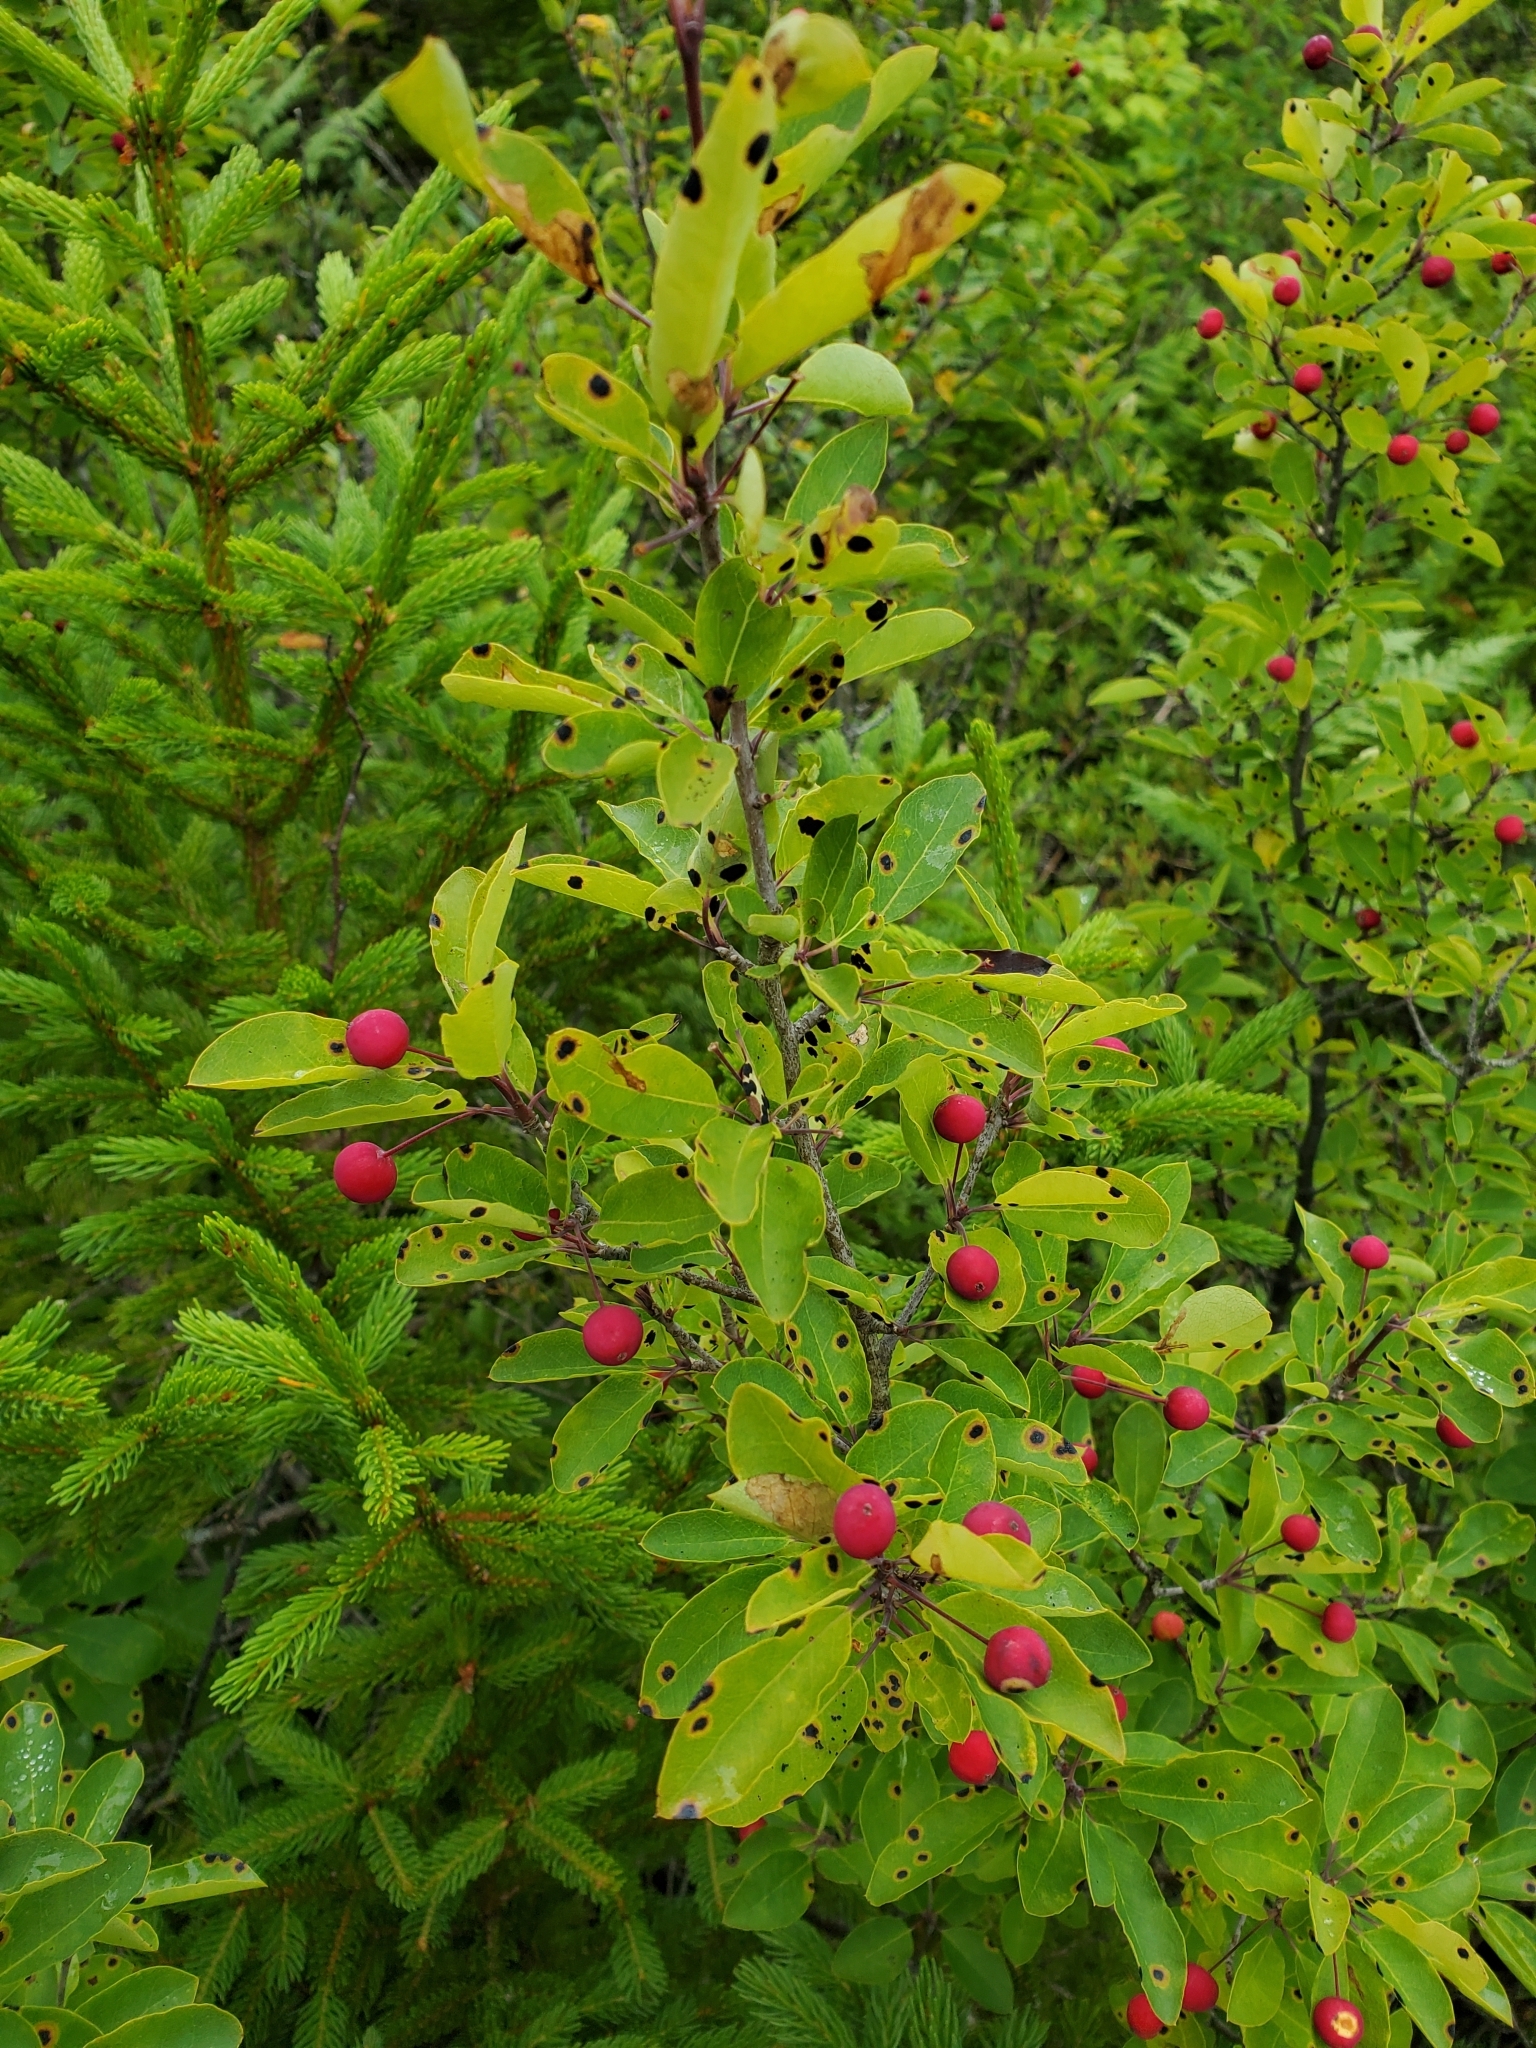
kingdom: Plantae
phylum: Tracheophyta
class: Magnoliopsida
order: Aquifoliales
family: Aquifoliaceae
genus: Ilex
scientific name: Ilex mucronata
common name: Catberry
